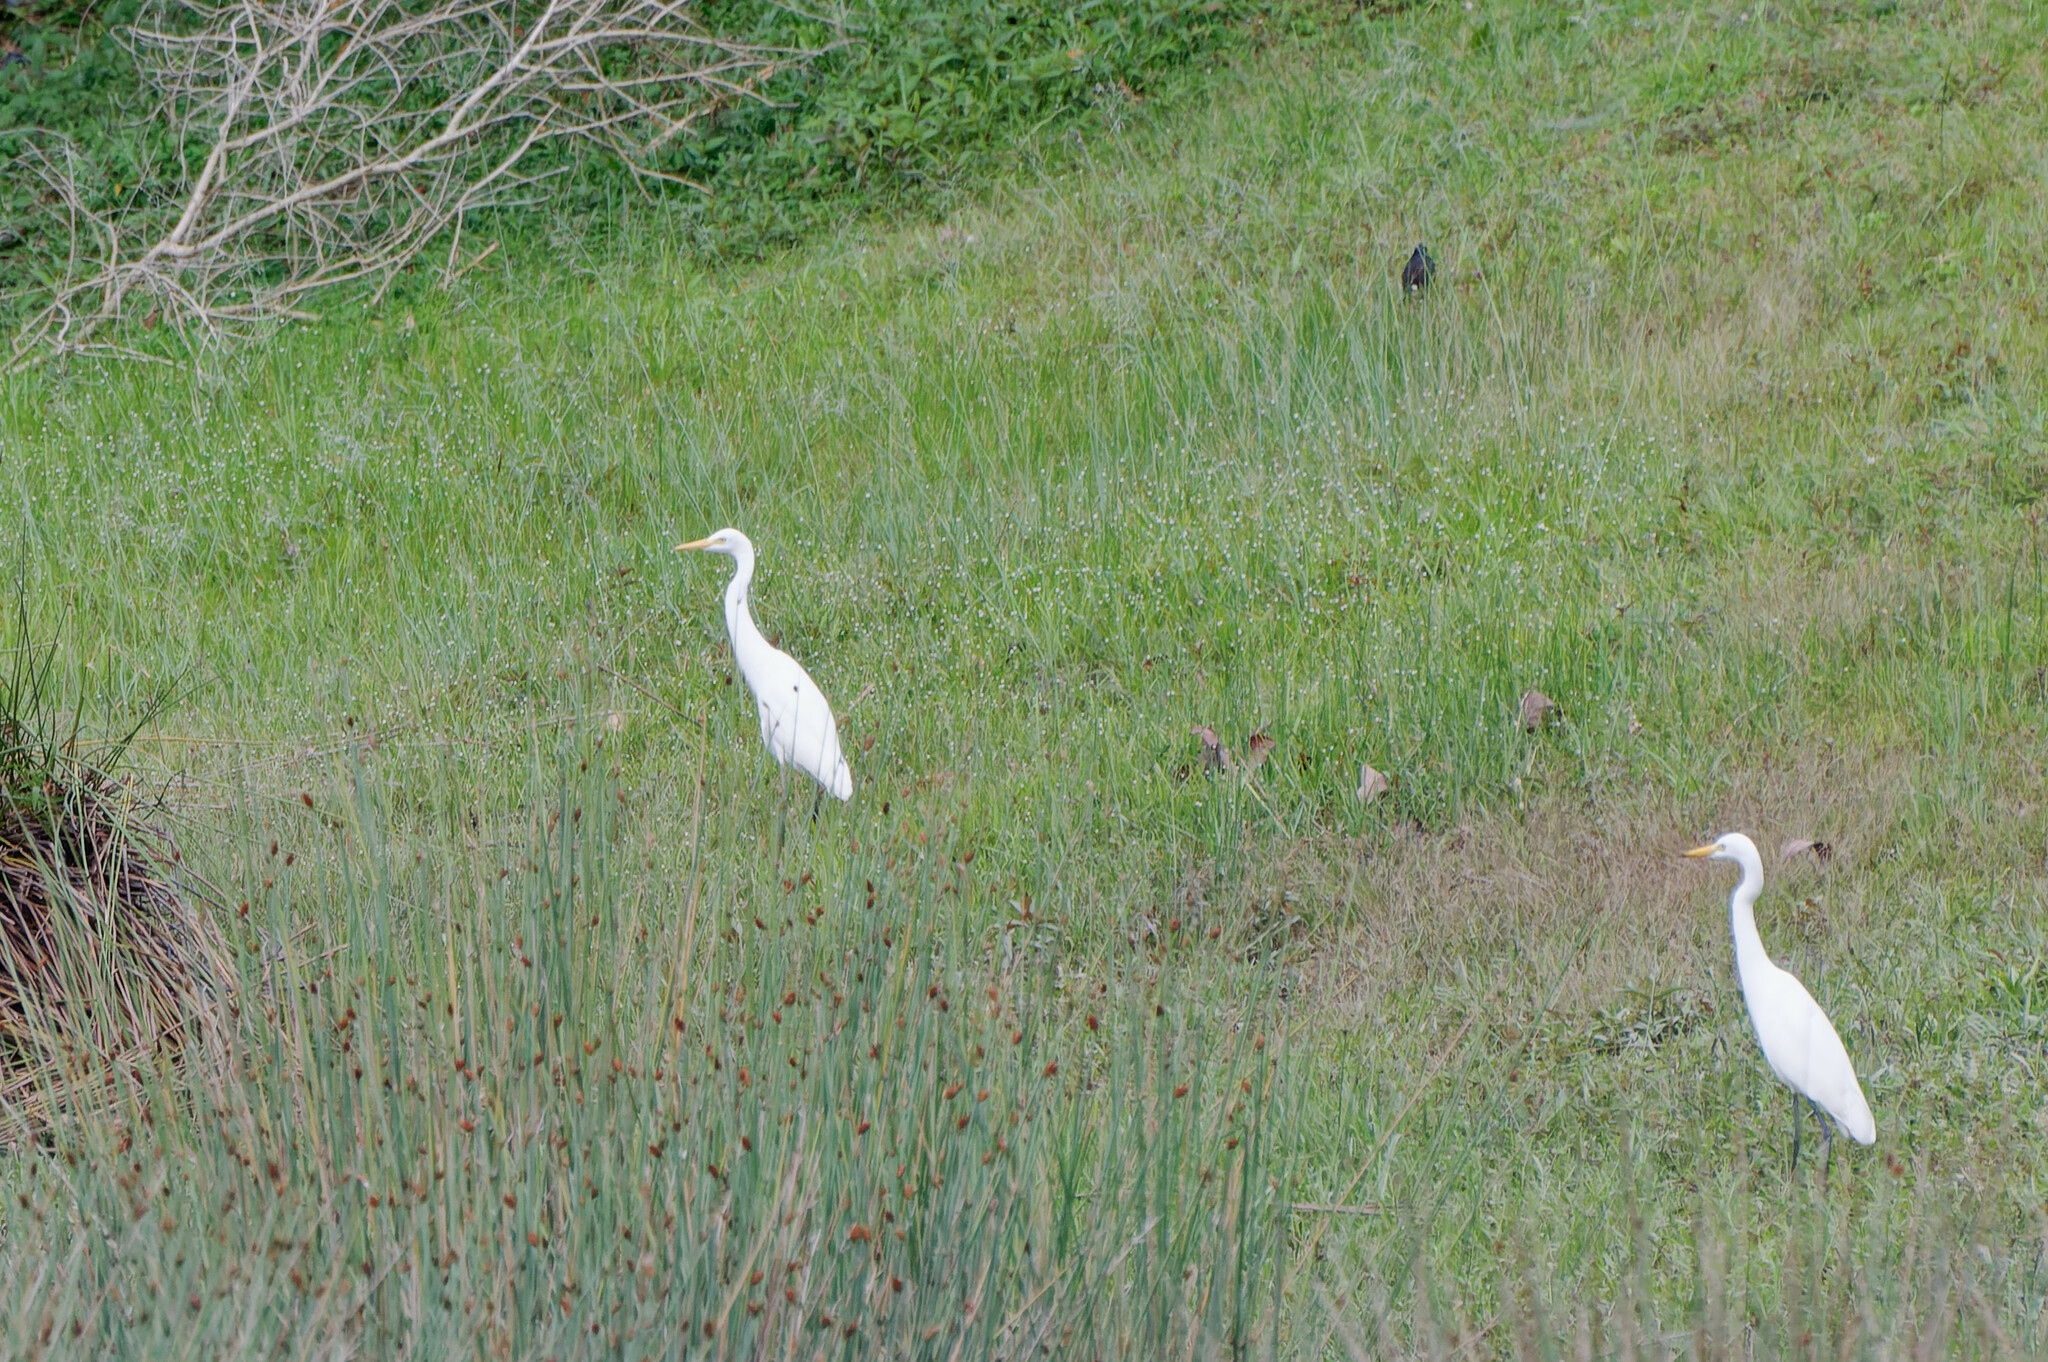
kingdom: Animalia
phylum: Chordata
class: Aves
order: Pelecaniformes
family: Ardeidae
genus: Egretta
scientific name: Egretta intermedia
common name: Intermediate egret
